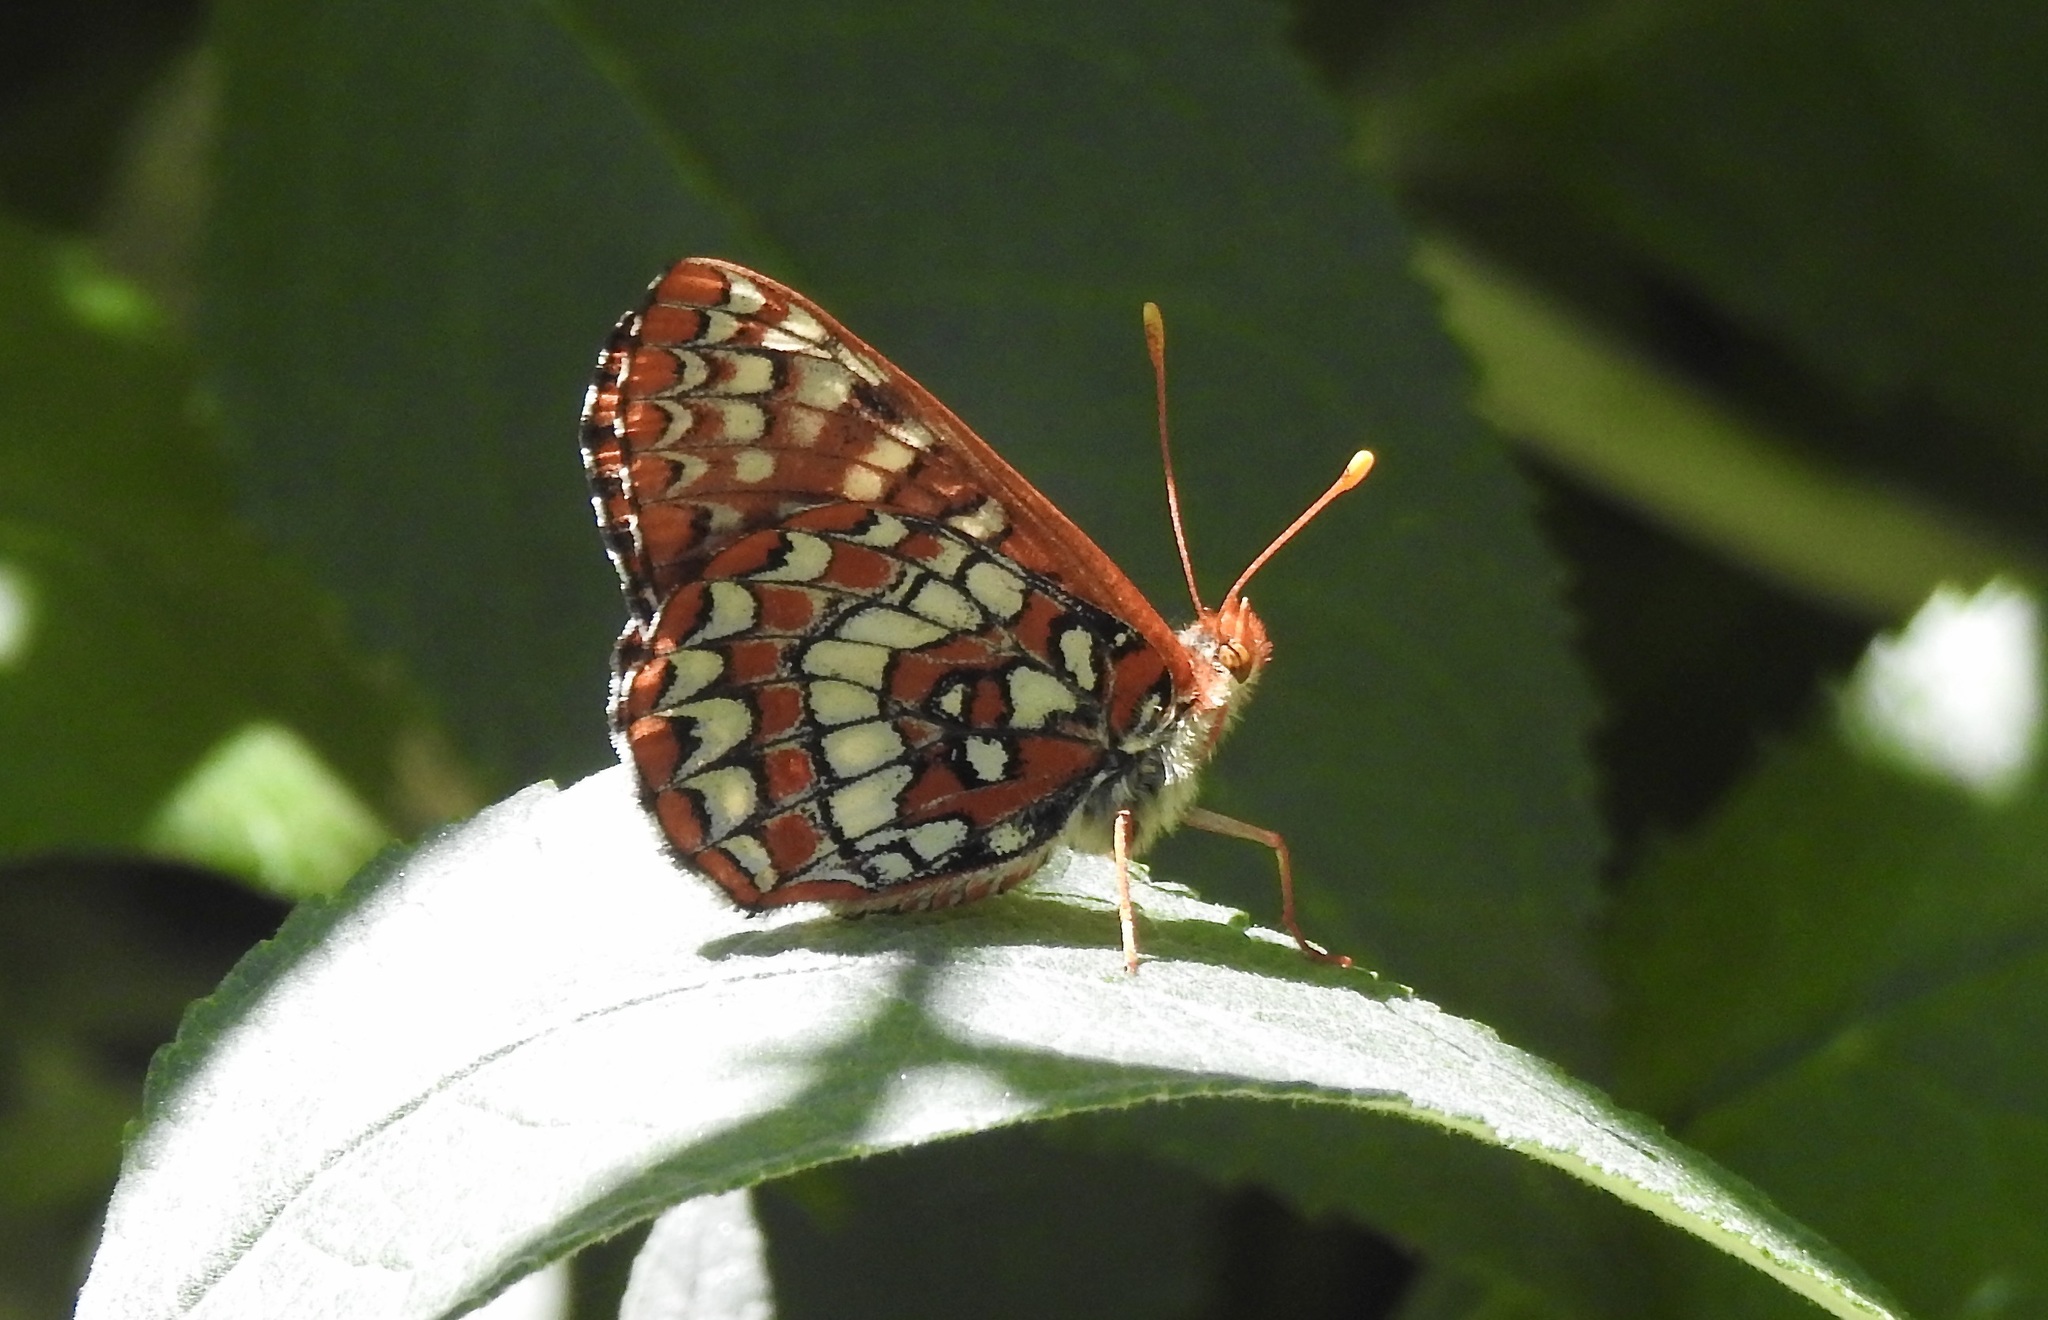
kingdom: Animalia
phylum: Arthropoda
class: Insecta
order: Lepidoptera
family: Nymphalidae
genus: Occidryas
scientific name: Occidryas chalcedona
